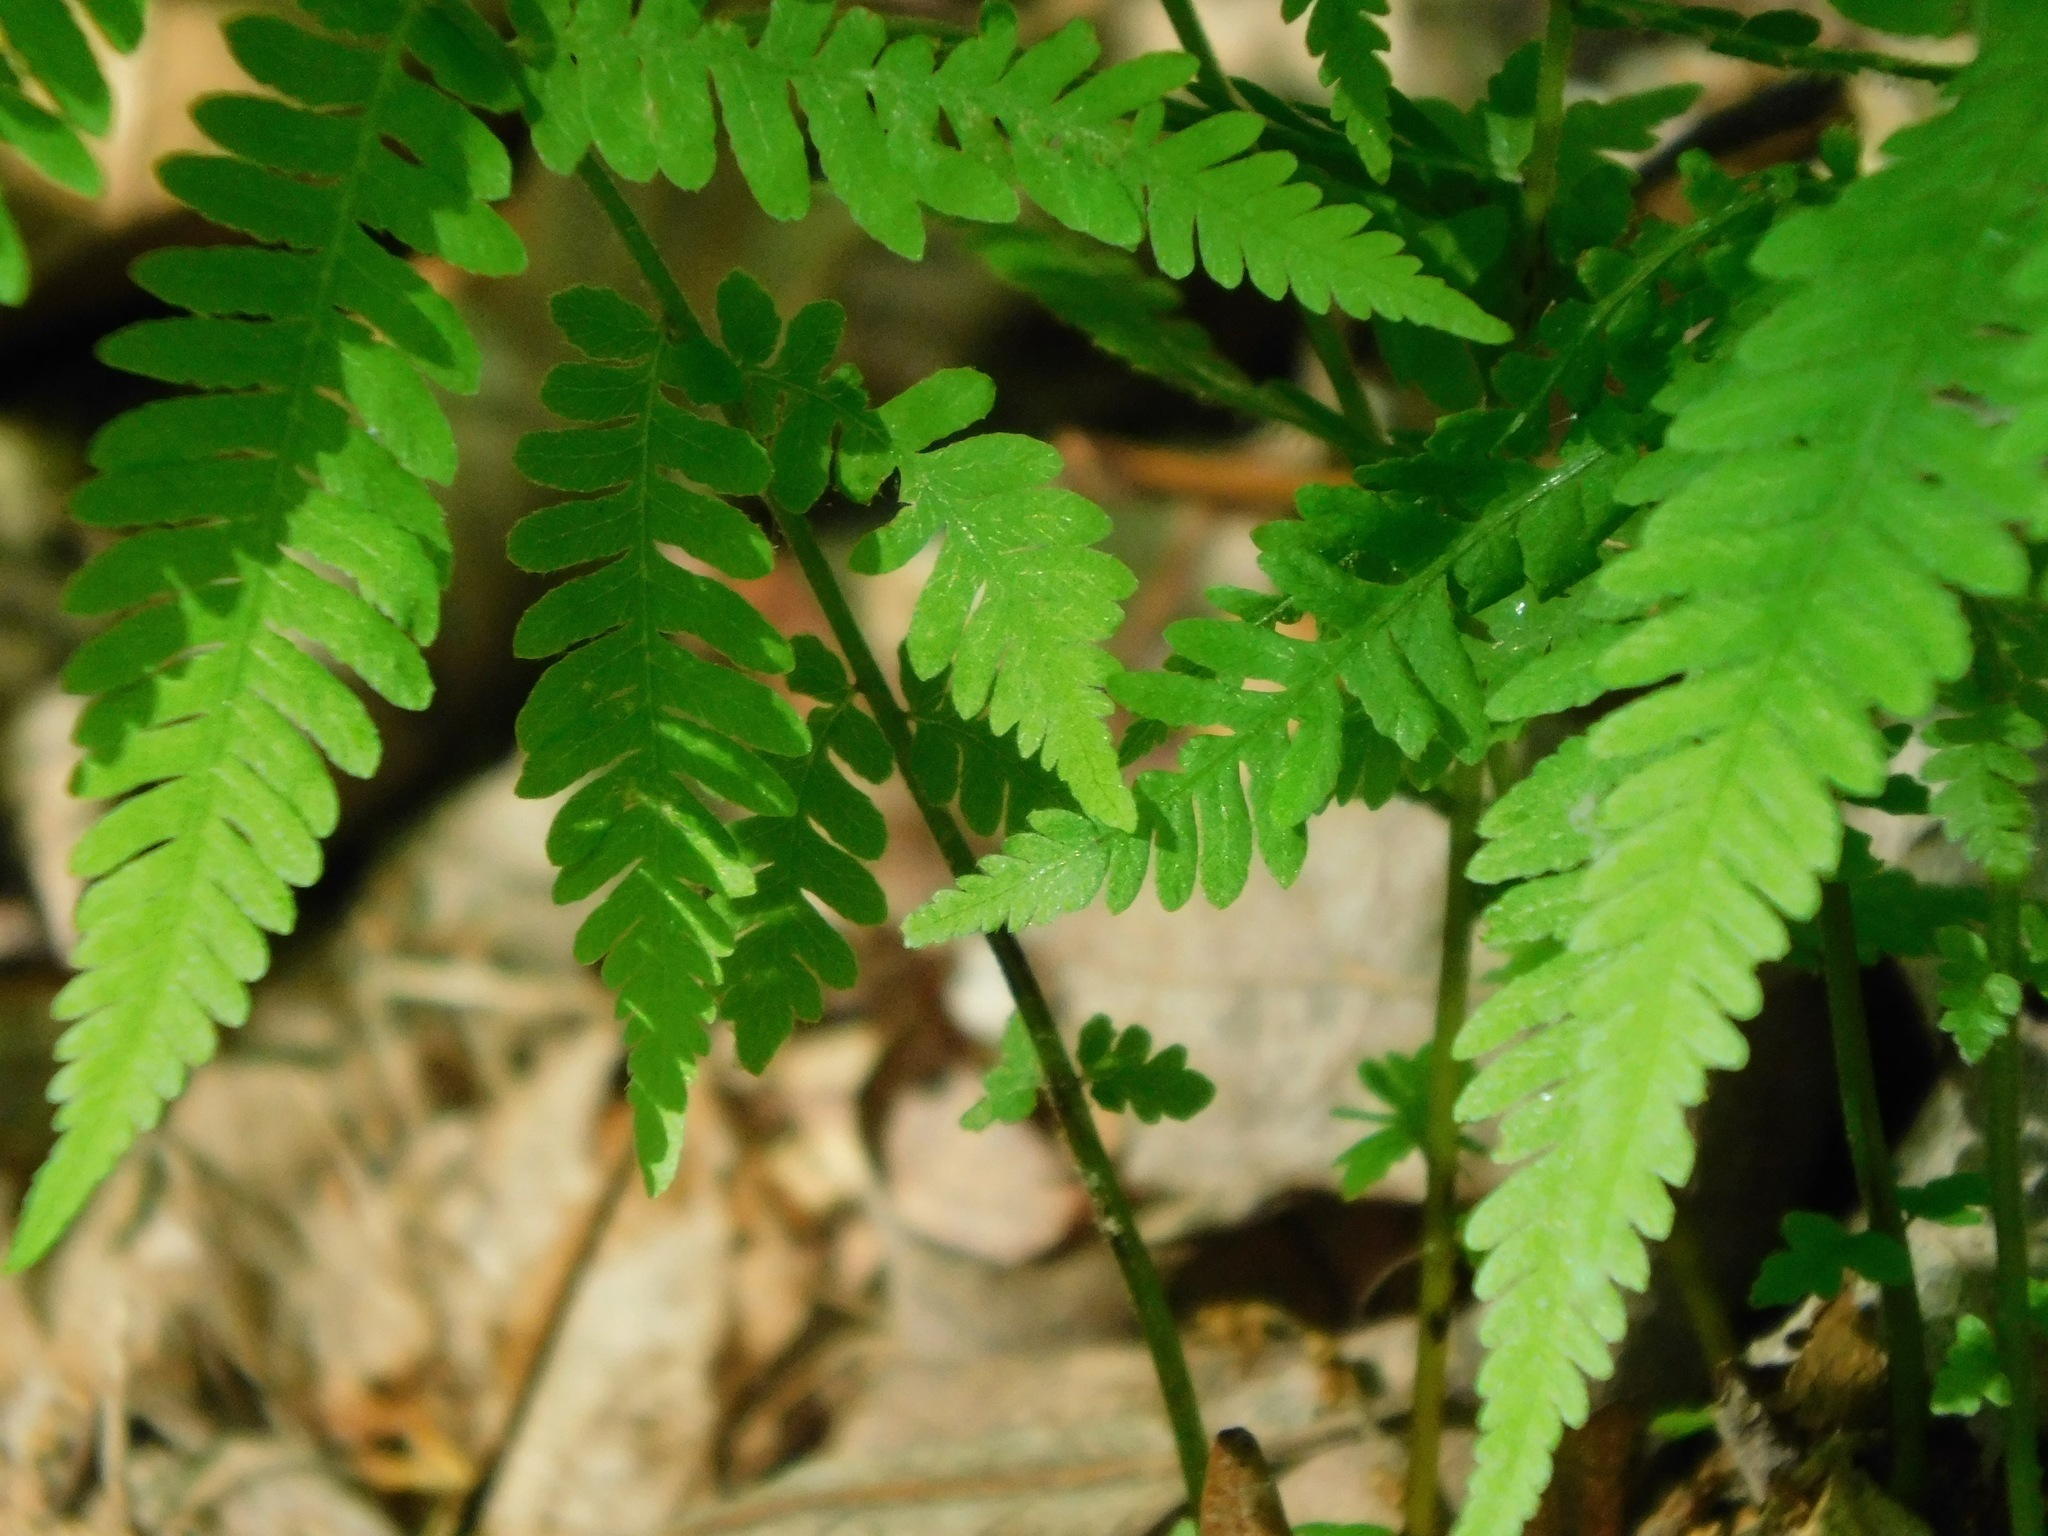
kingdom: Plantae
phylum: Tracheophyta
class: Polypodiopsida
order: Polypodiales
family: Thelypteridaceae
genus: Amauropelta
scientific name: Amauropelta noveboracensis
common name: New york fern
